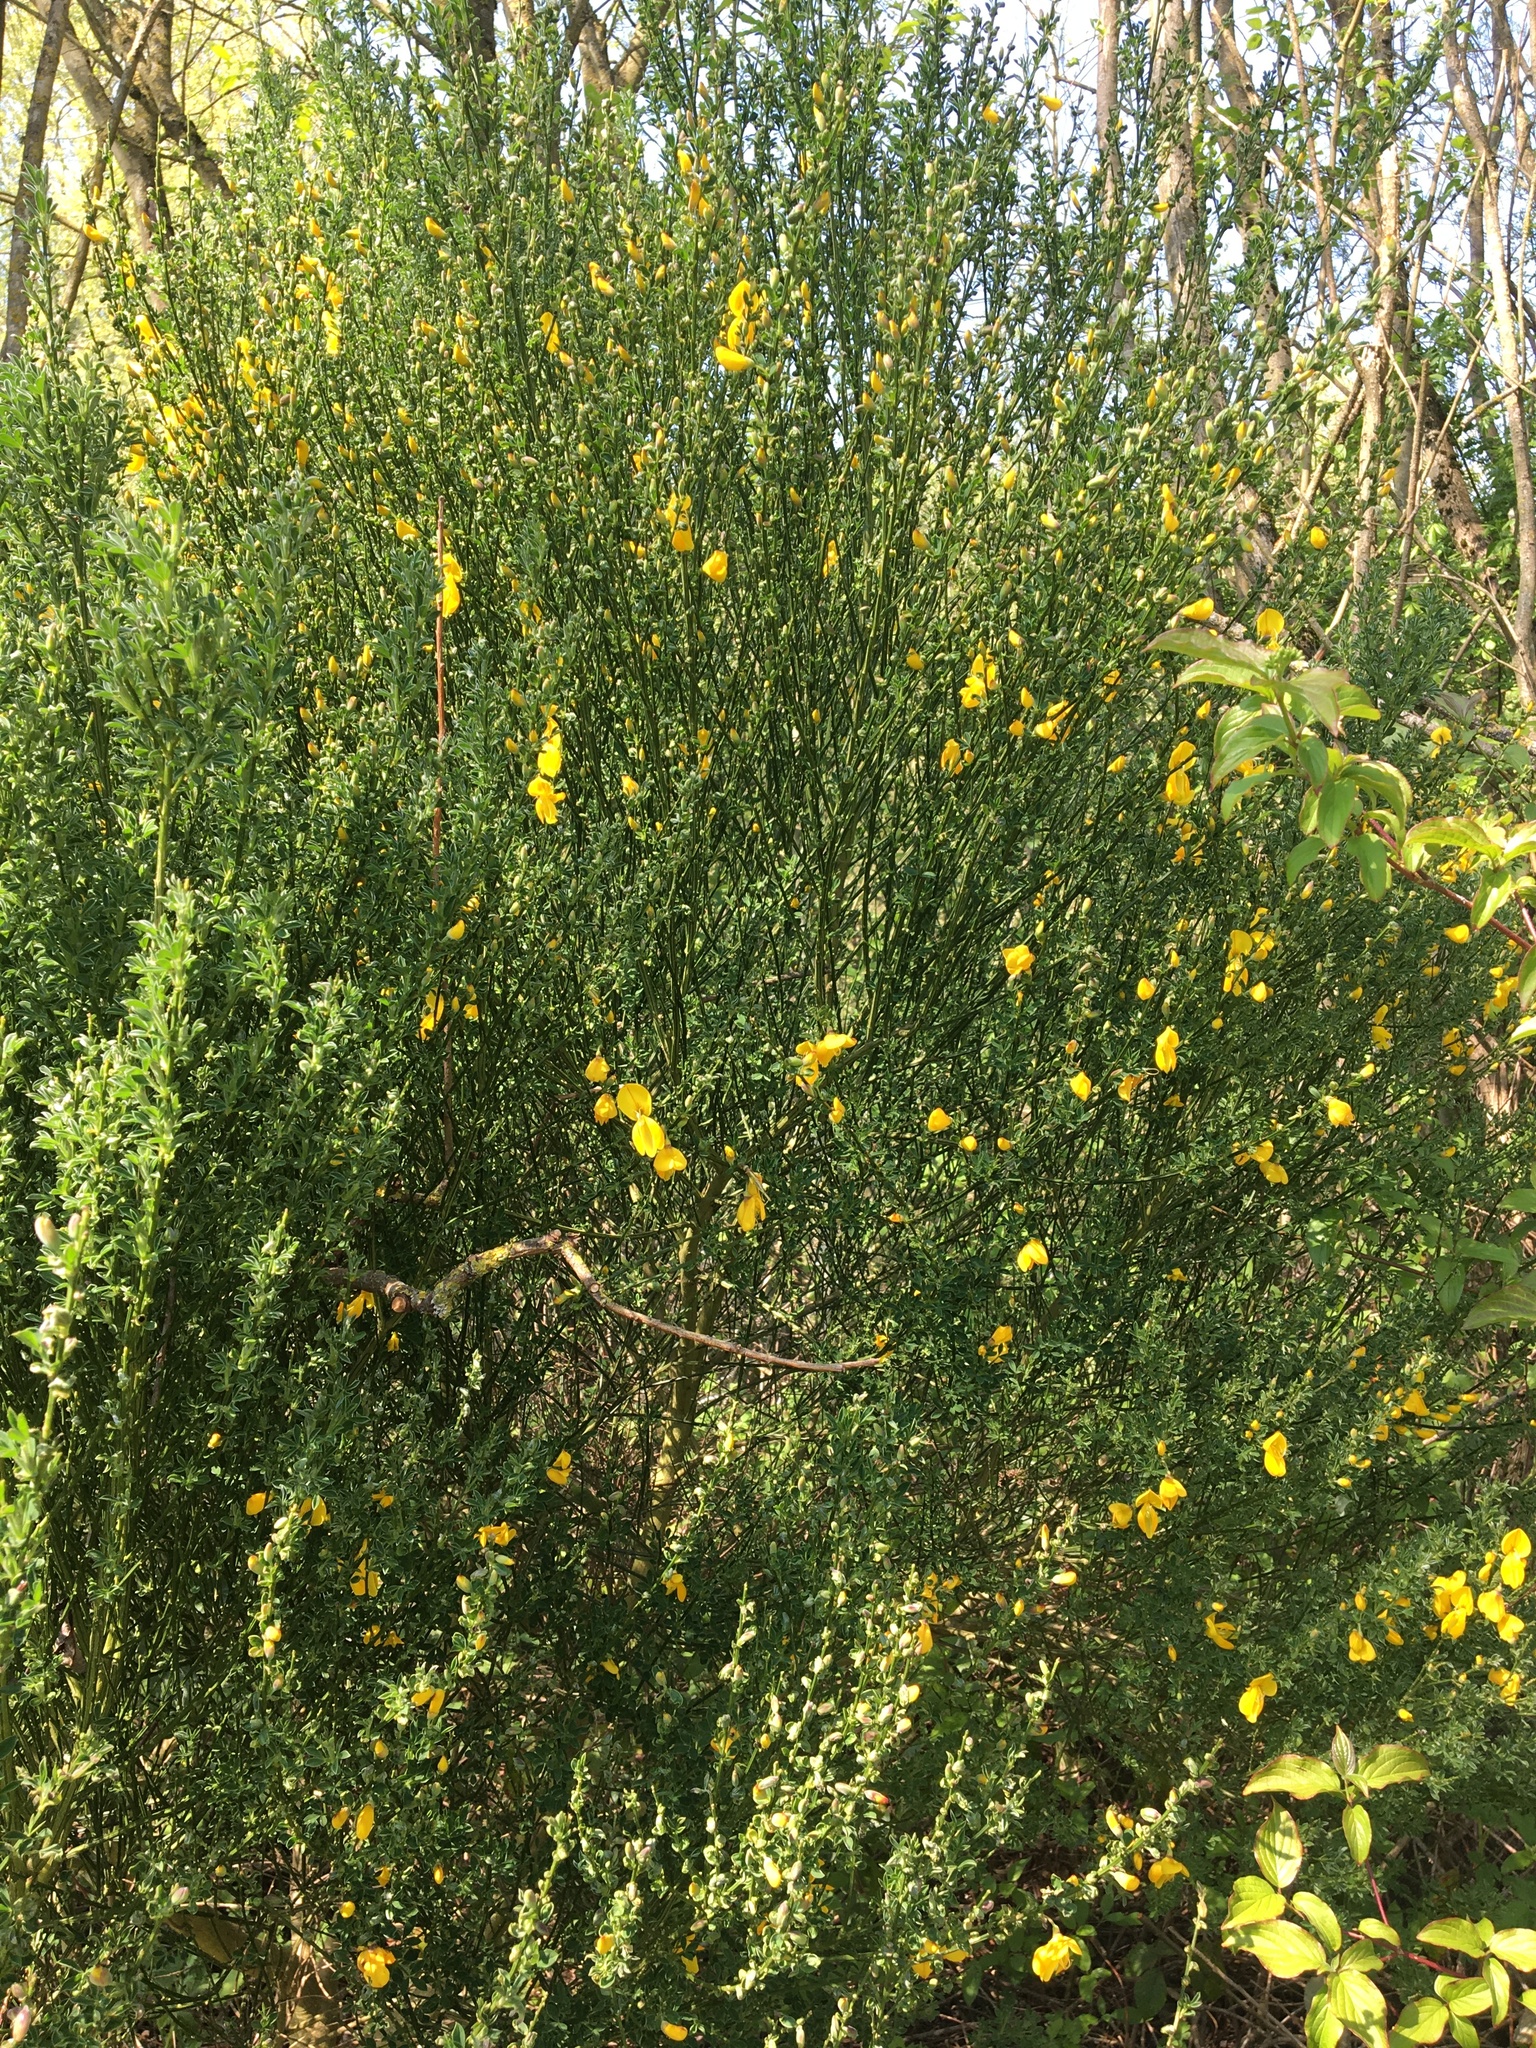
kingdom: Plantae
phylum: Tracheophyta
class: Magnoliopsida
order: Fabales
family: Fabaceae
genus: Cytisus
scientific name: Cytisus scoparius
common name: Scotch broom
